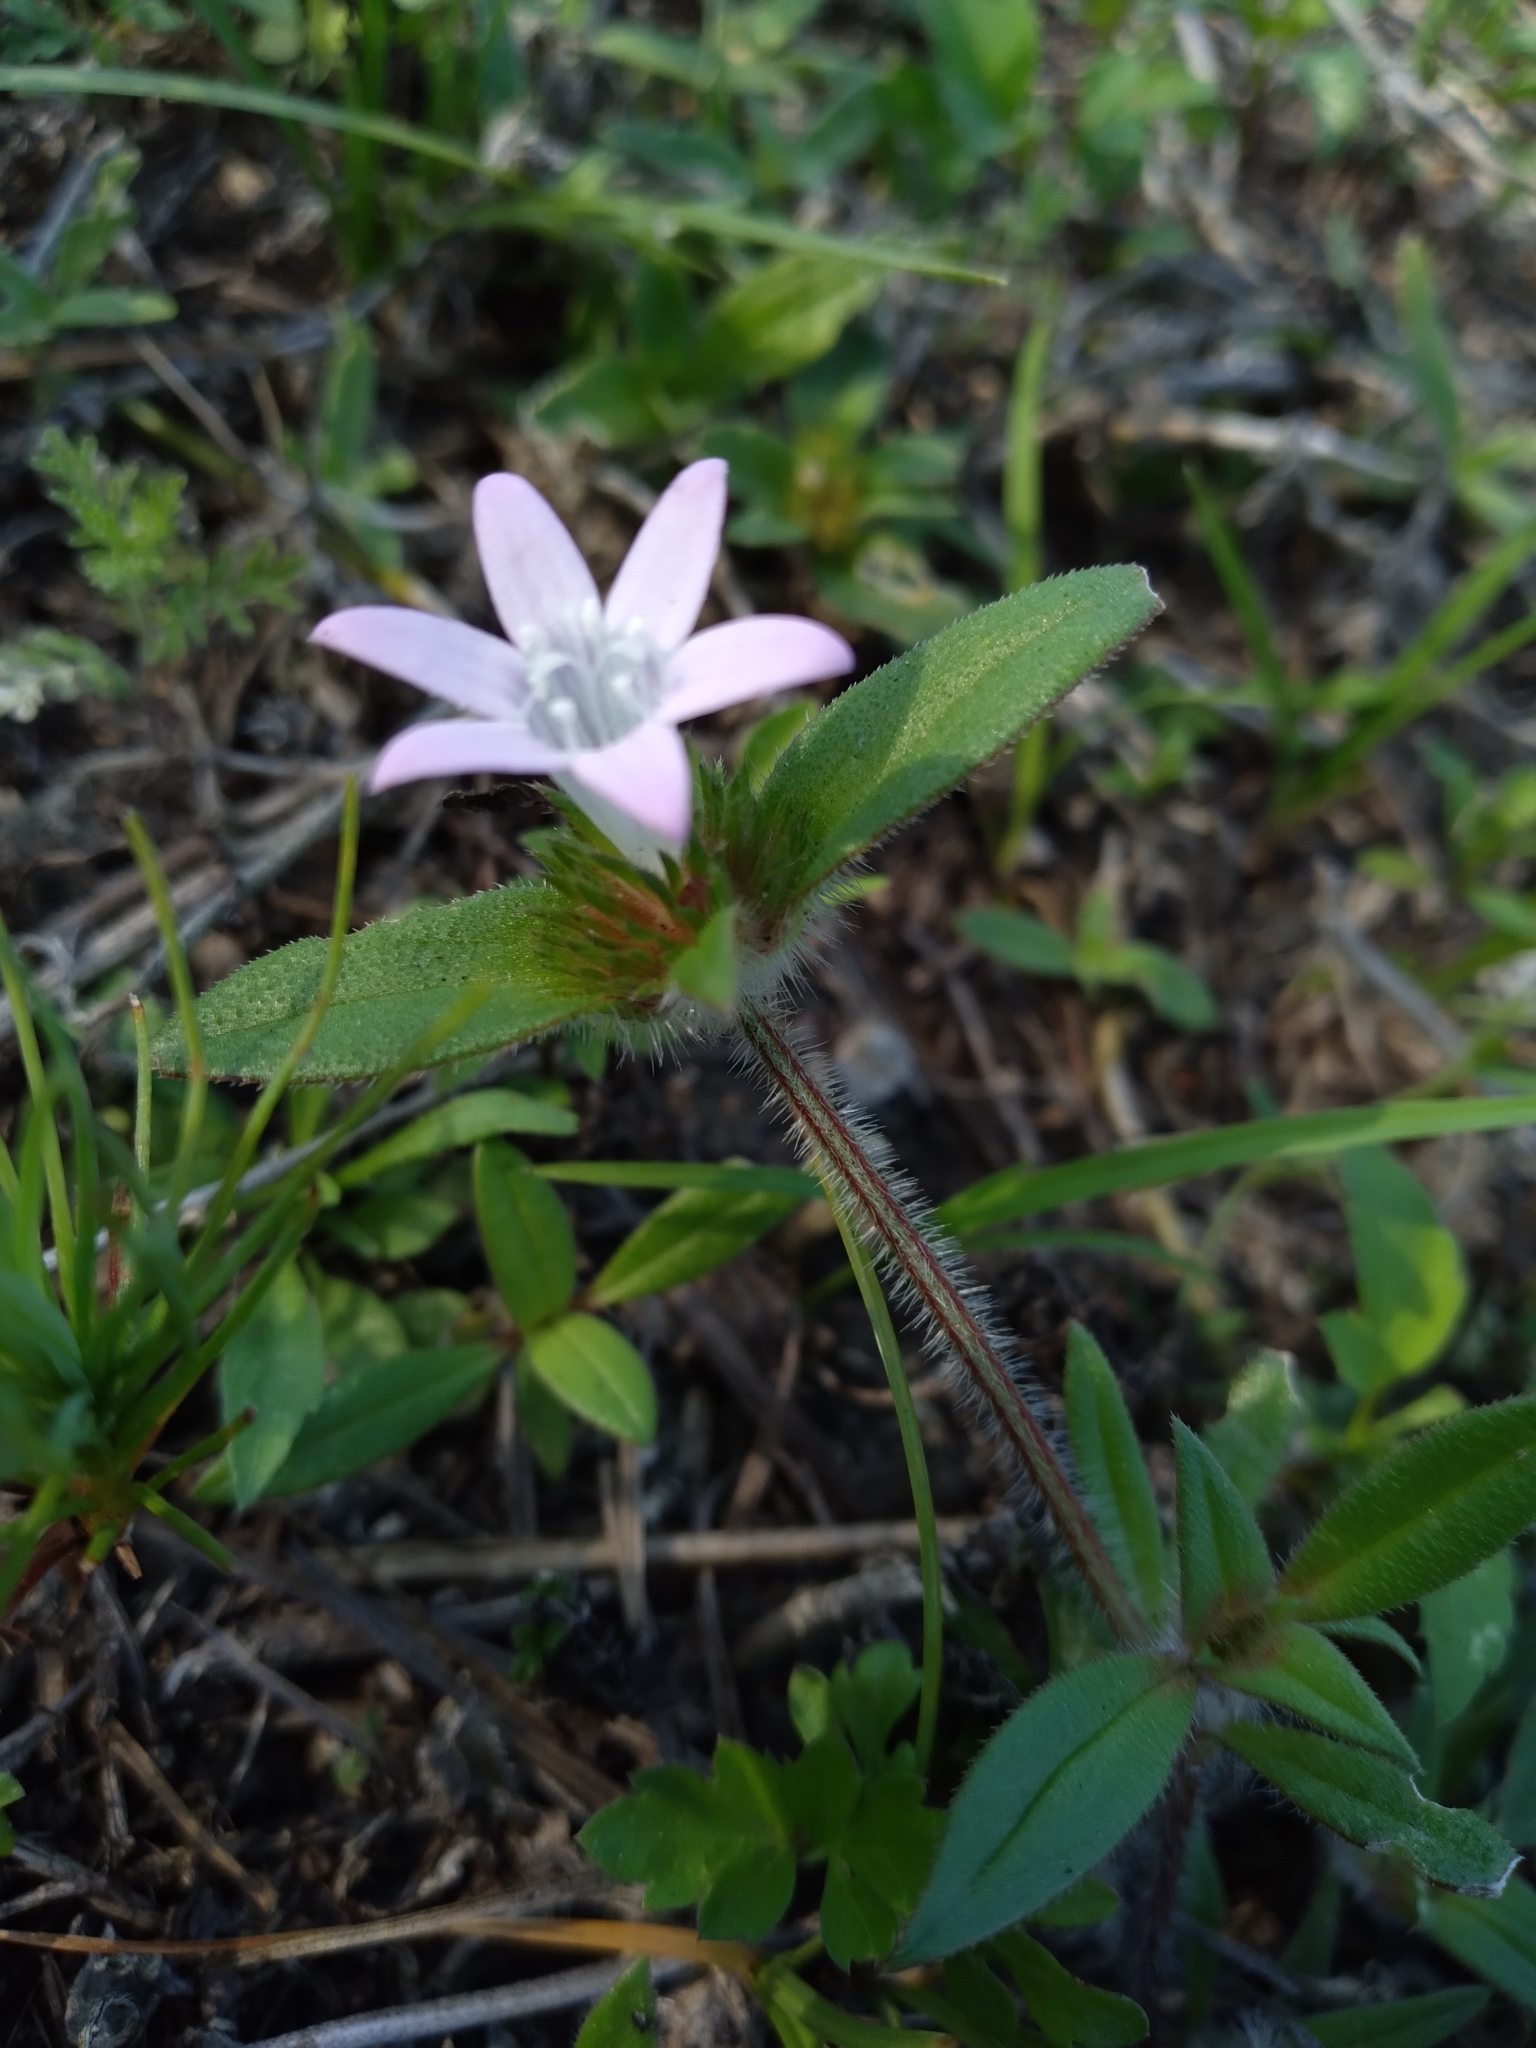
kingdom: Plantae
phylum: Tracheophyta
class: Magnoliopsida
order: Gentianales
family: Rubiaceae
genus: Richardia
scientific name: Richardia grandiflora
